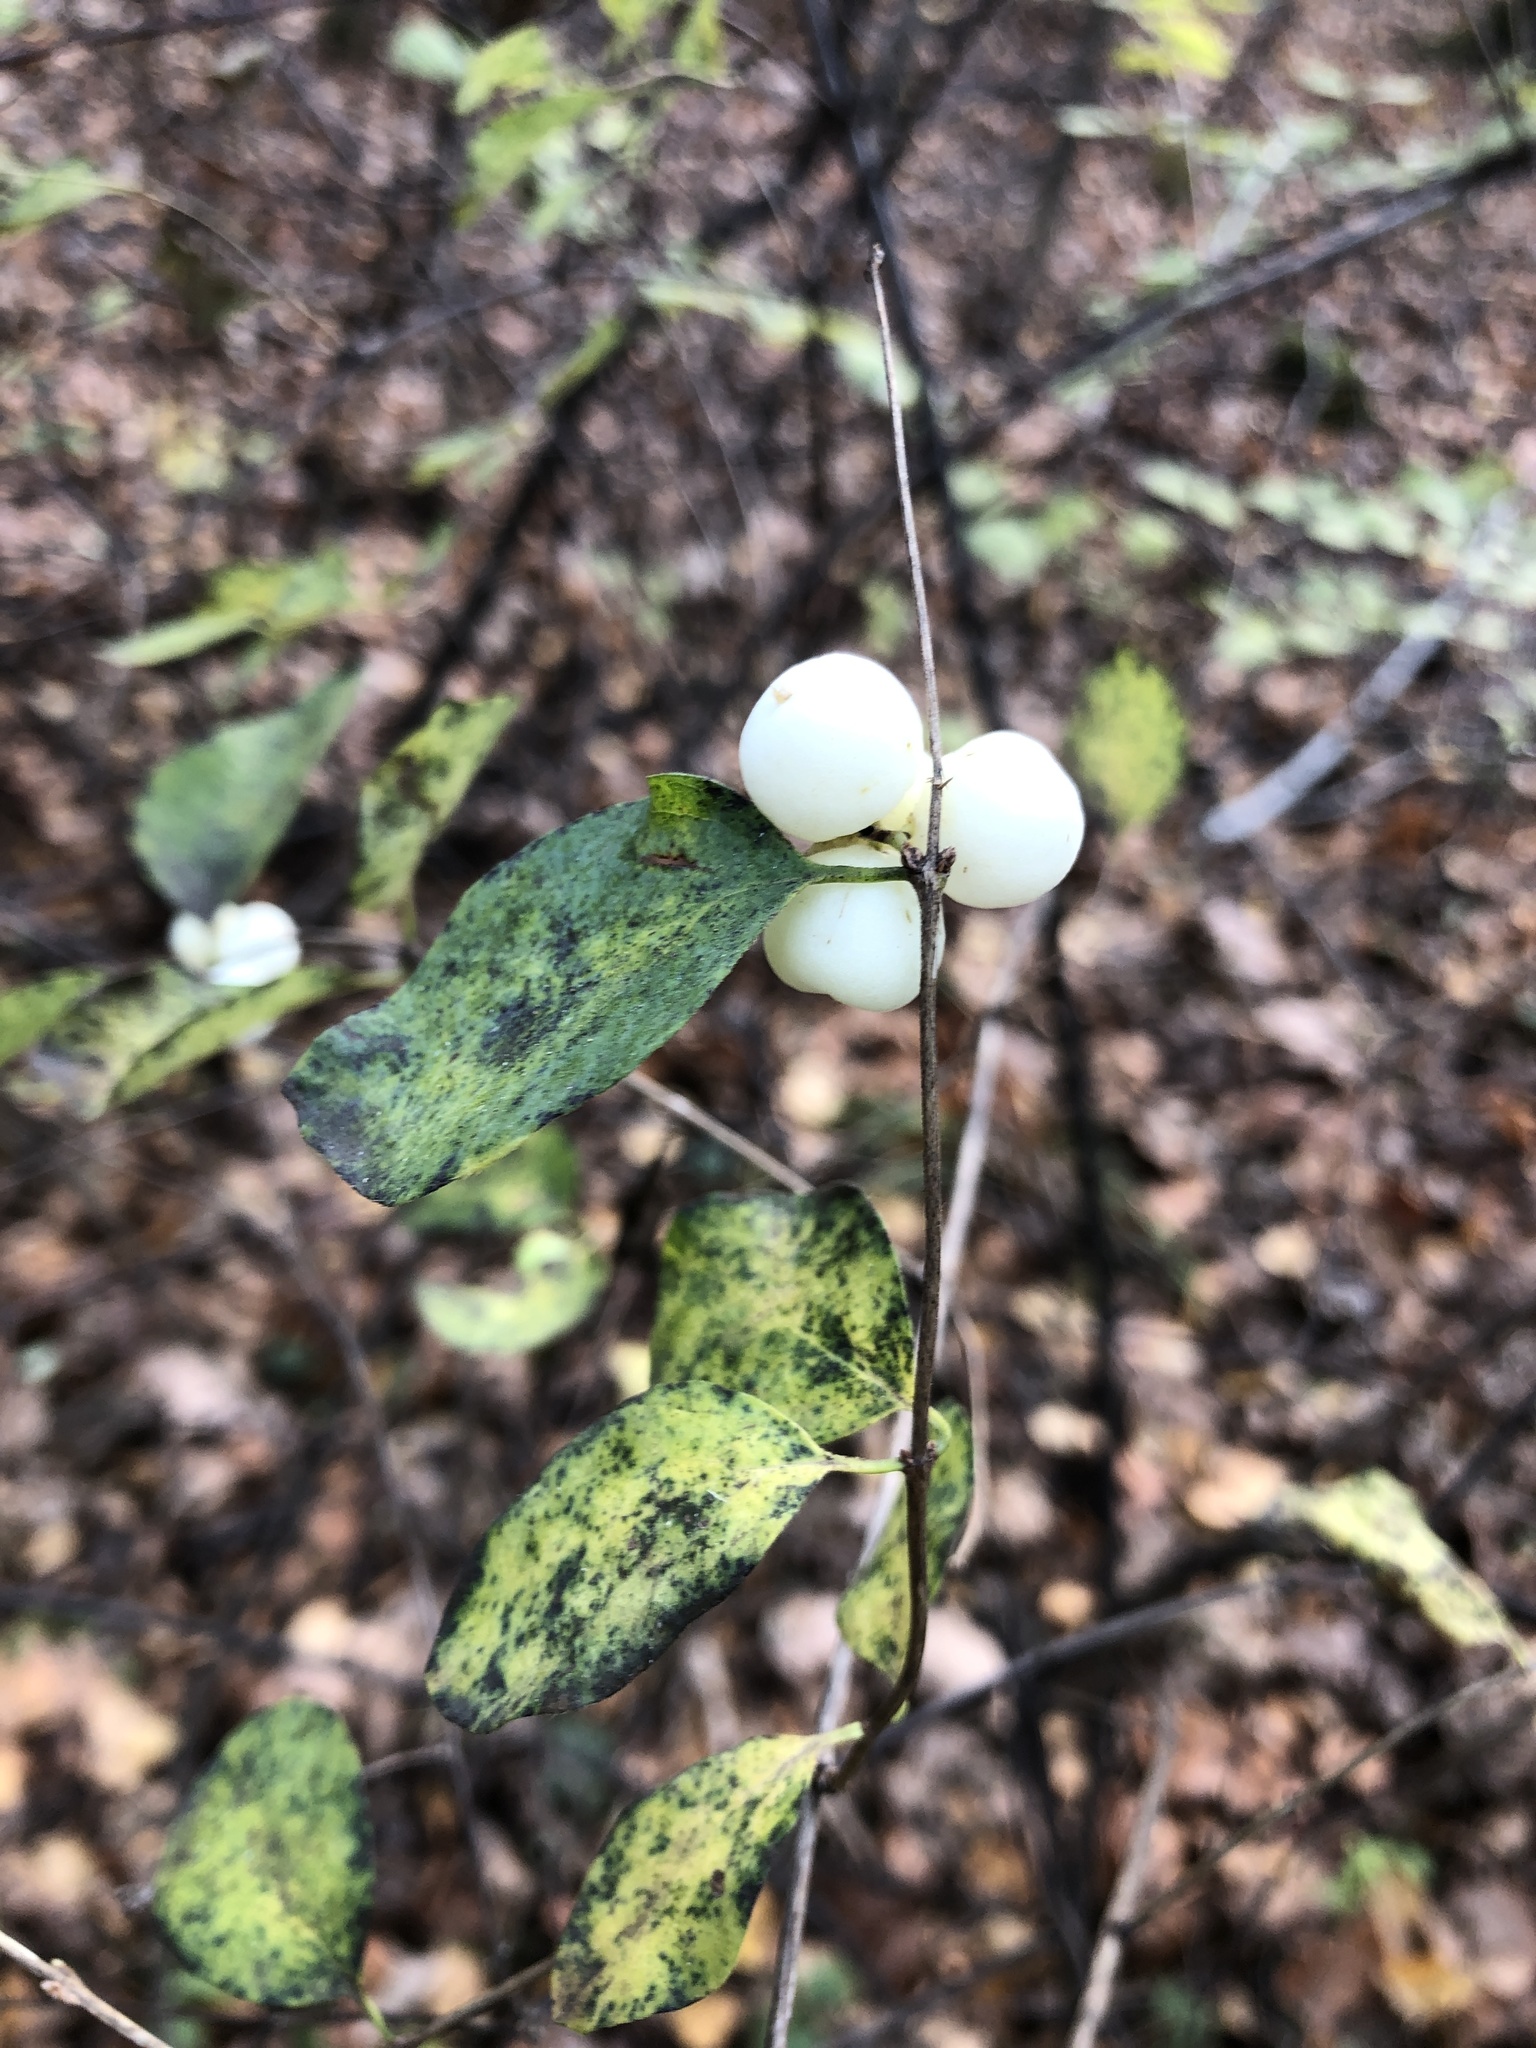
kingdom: Plantae
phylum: Tracheophyta
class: Magnoliopsida
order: Dipsacales
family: Caprifoliaceae
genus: Symphoricarpos
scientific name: Symphoricarpos albus
